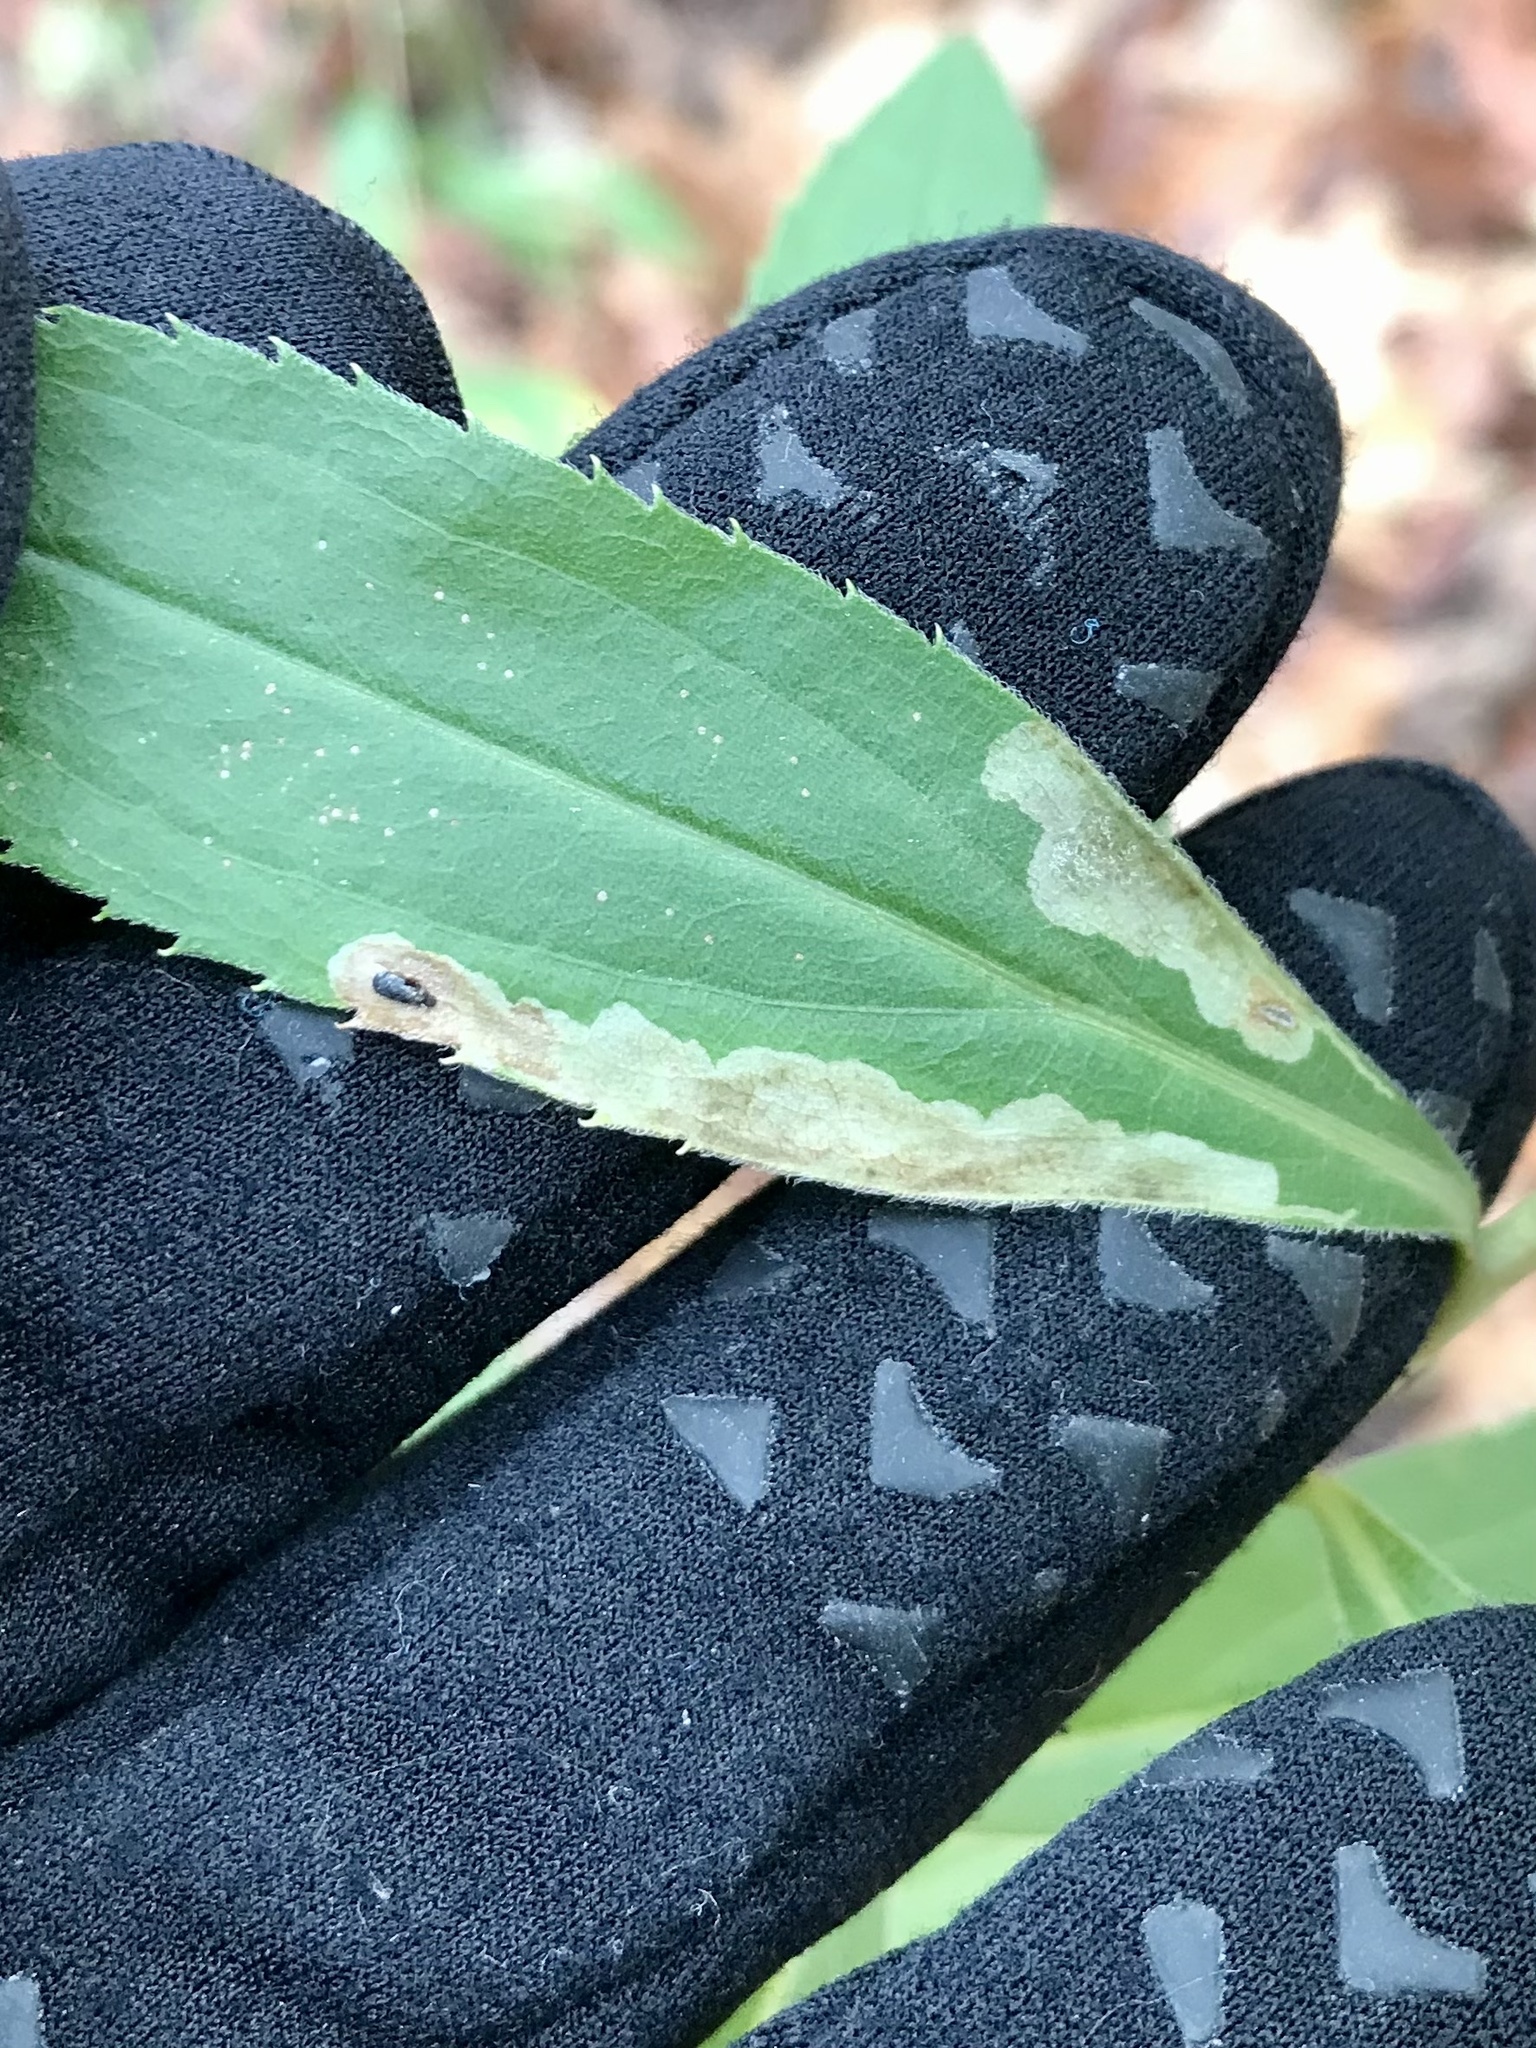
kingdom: Animalia
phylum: Arthropoda
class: Insecta
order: Diptera
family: Agromyzidae
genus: Calycomyza
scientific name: Calycomyza solidaginis
